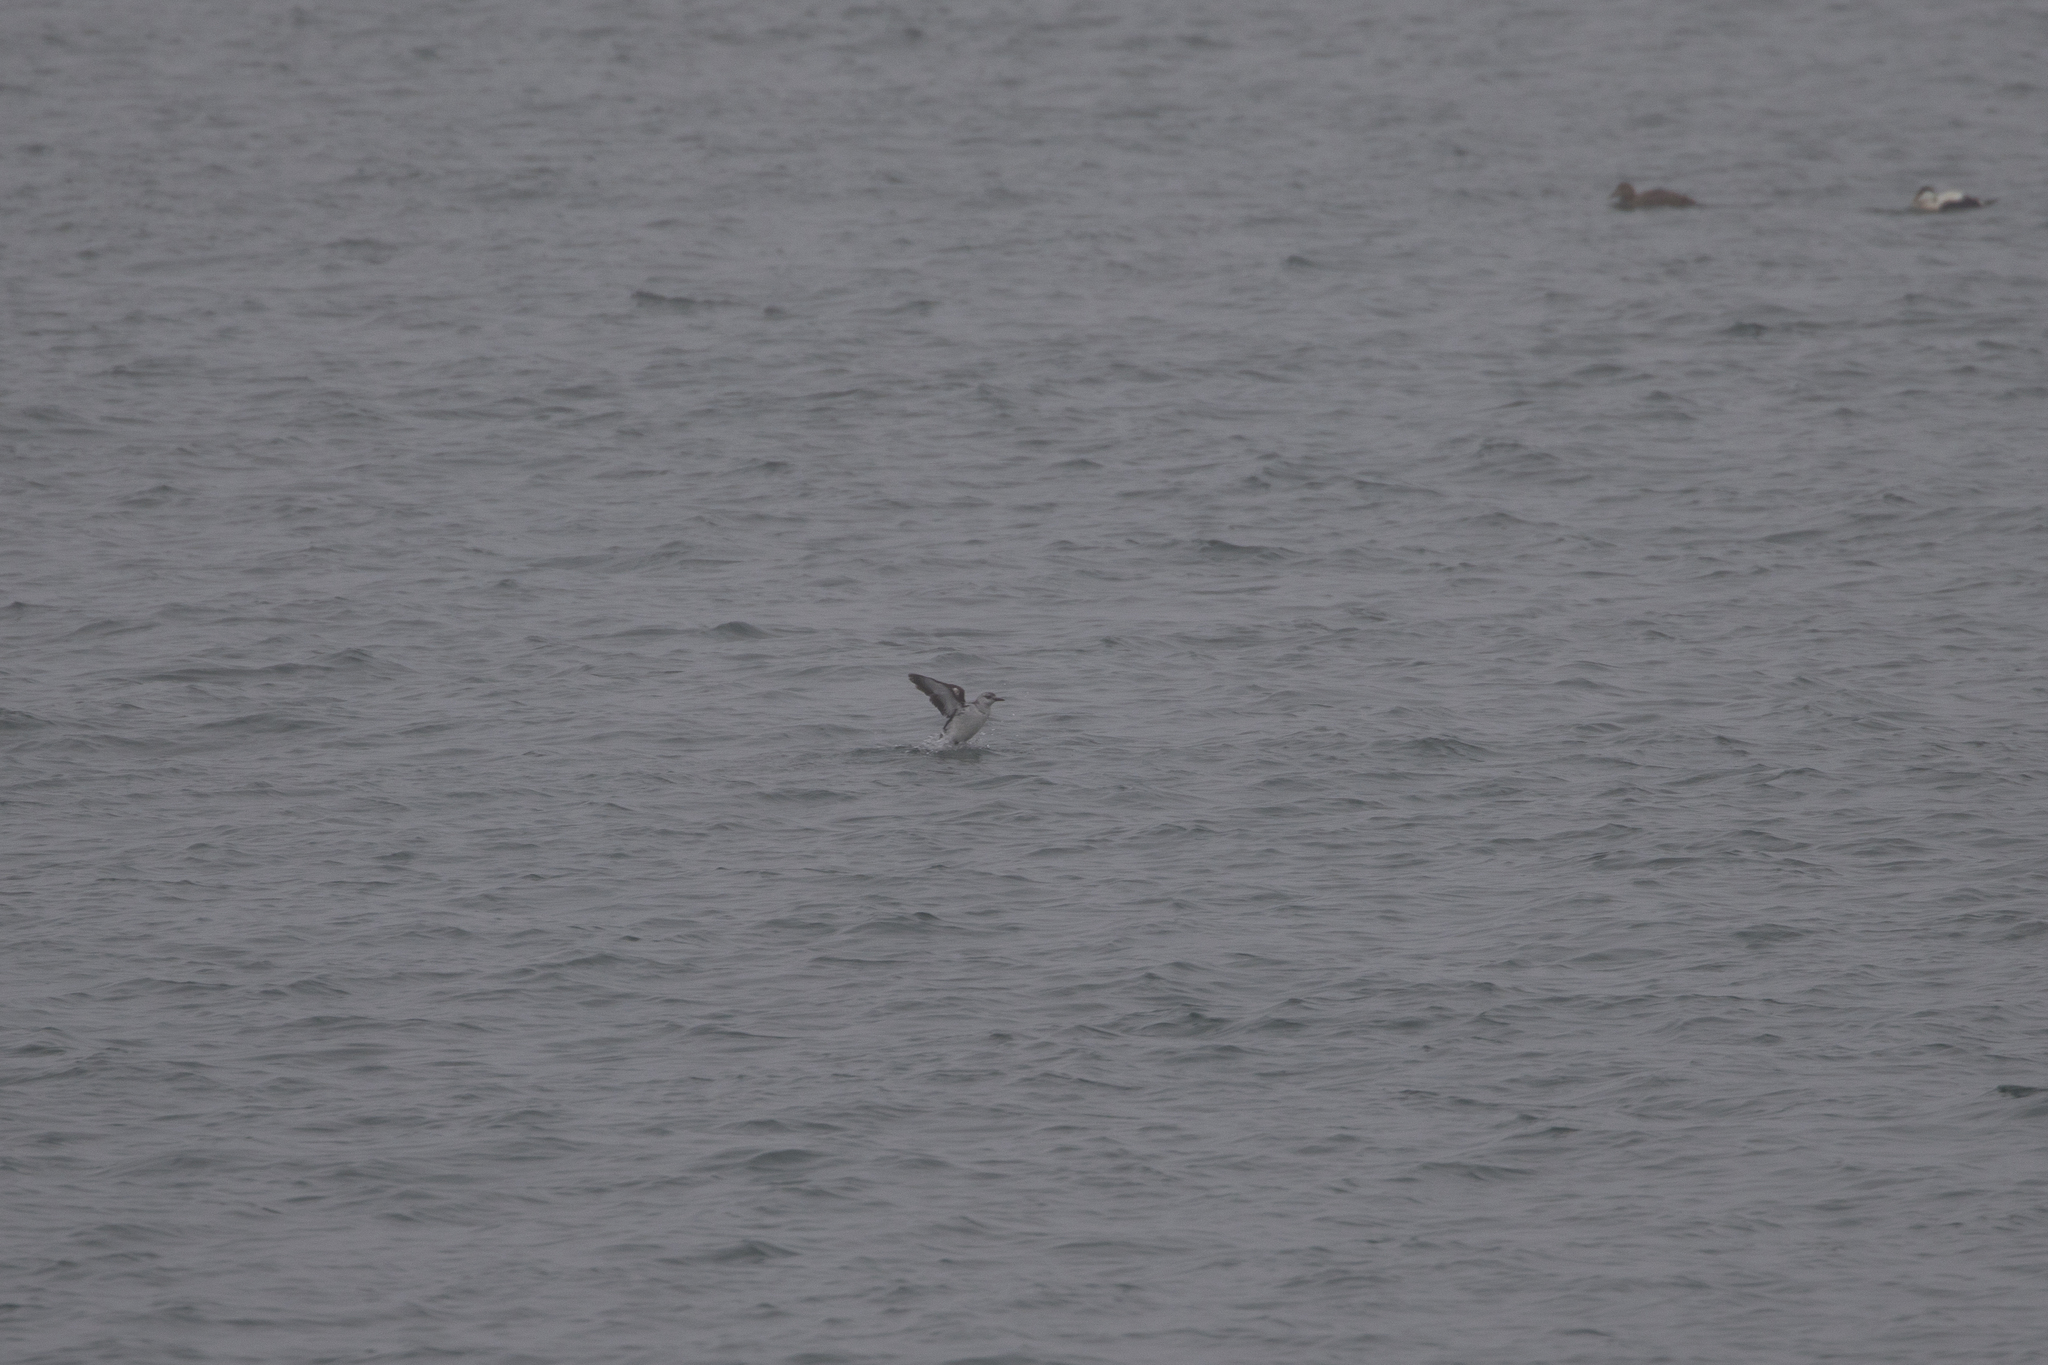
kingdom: Animalia
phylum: Chordata
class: Aves
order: Charadriiformes
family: Alcidae
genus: Cepphus
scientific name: Cepphus grylle
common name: Black guillemot
